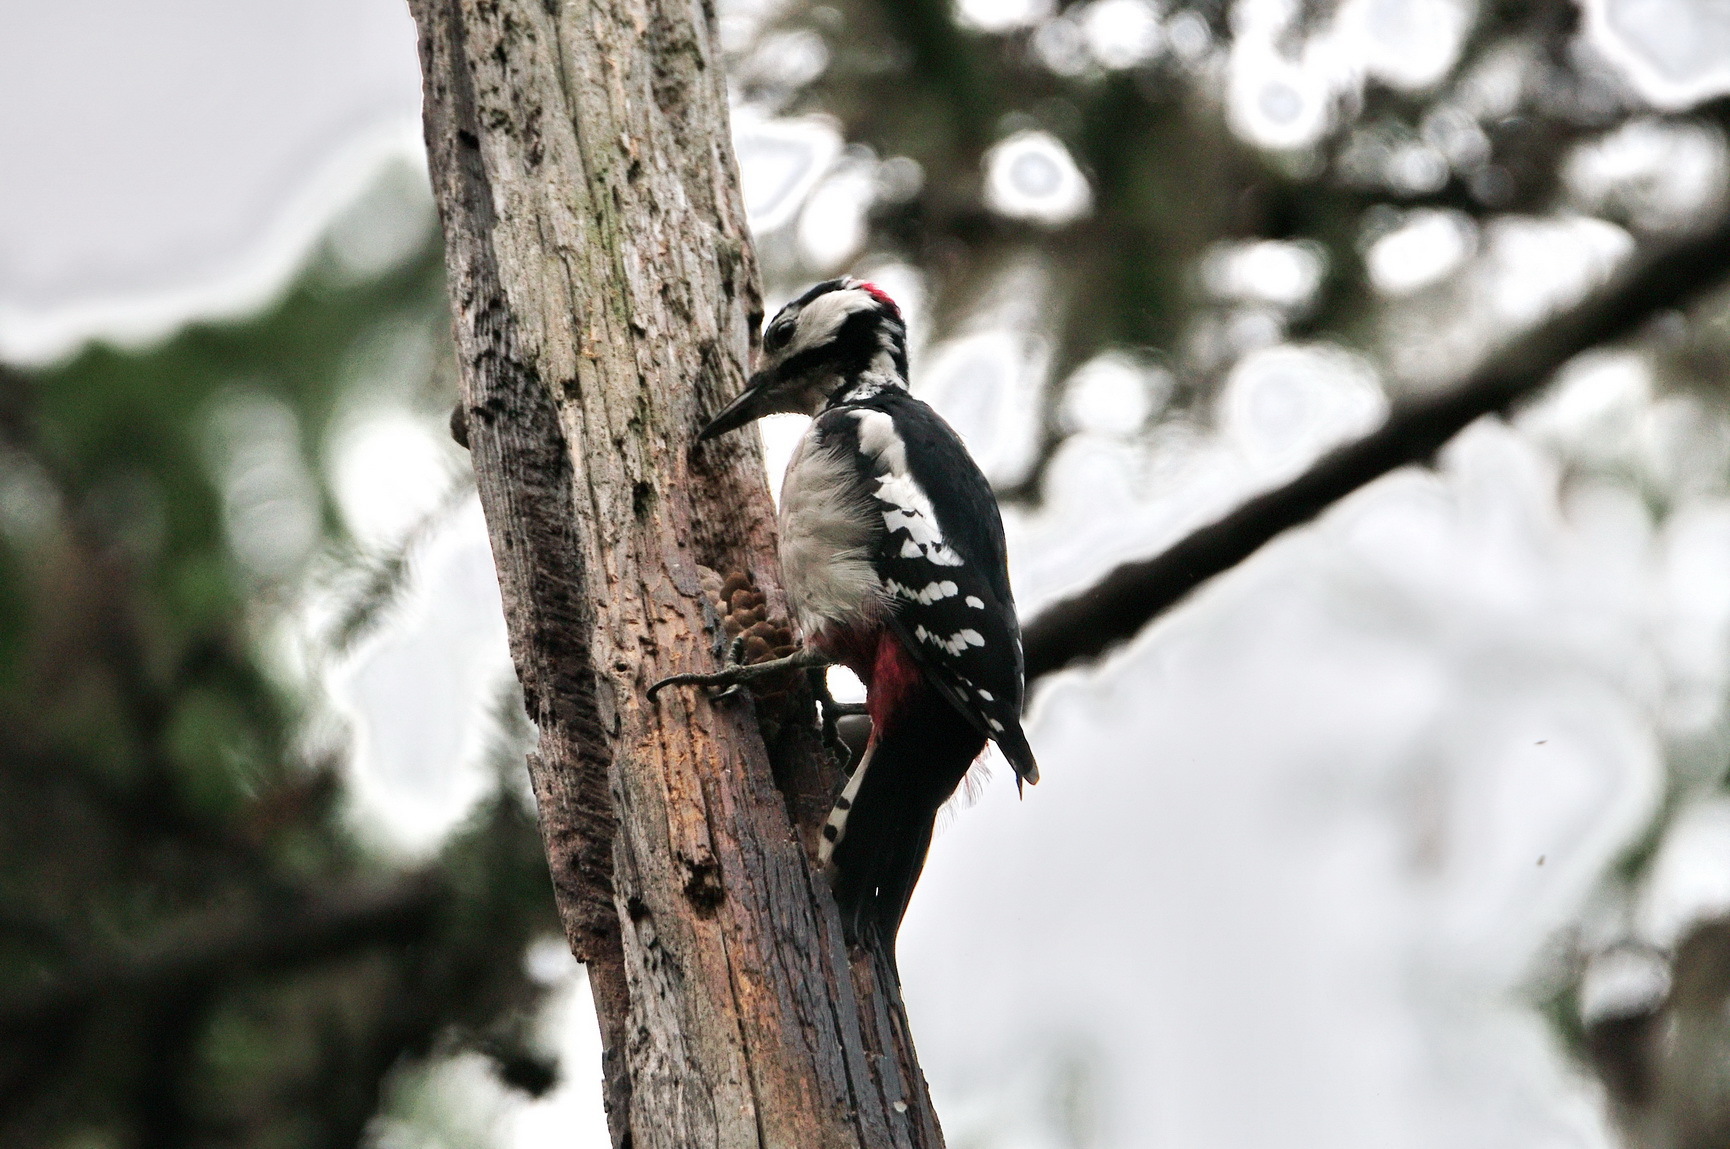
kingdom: Animalia
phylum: Chordata
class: Aves
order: Piciformes
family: Picidae
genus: Dendrocopos
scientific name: Dendrocopos major
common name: Great spotted woodpecker
